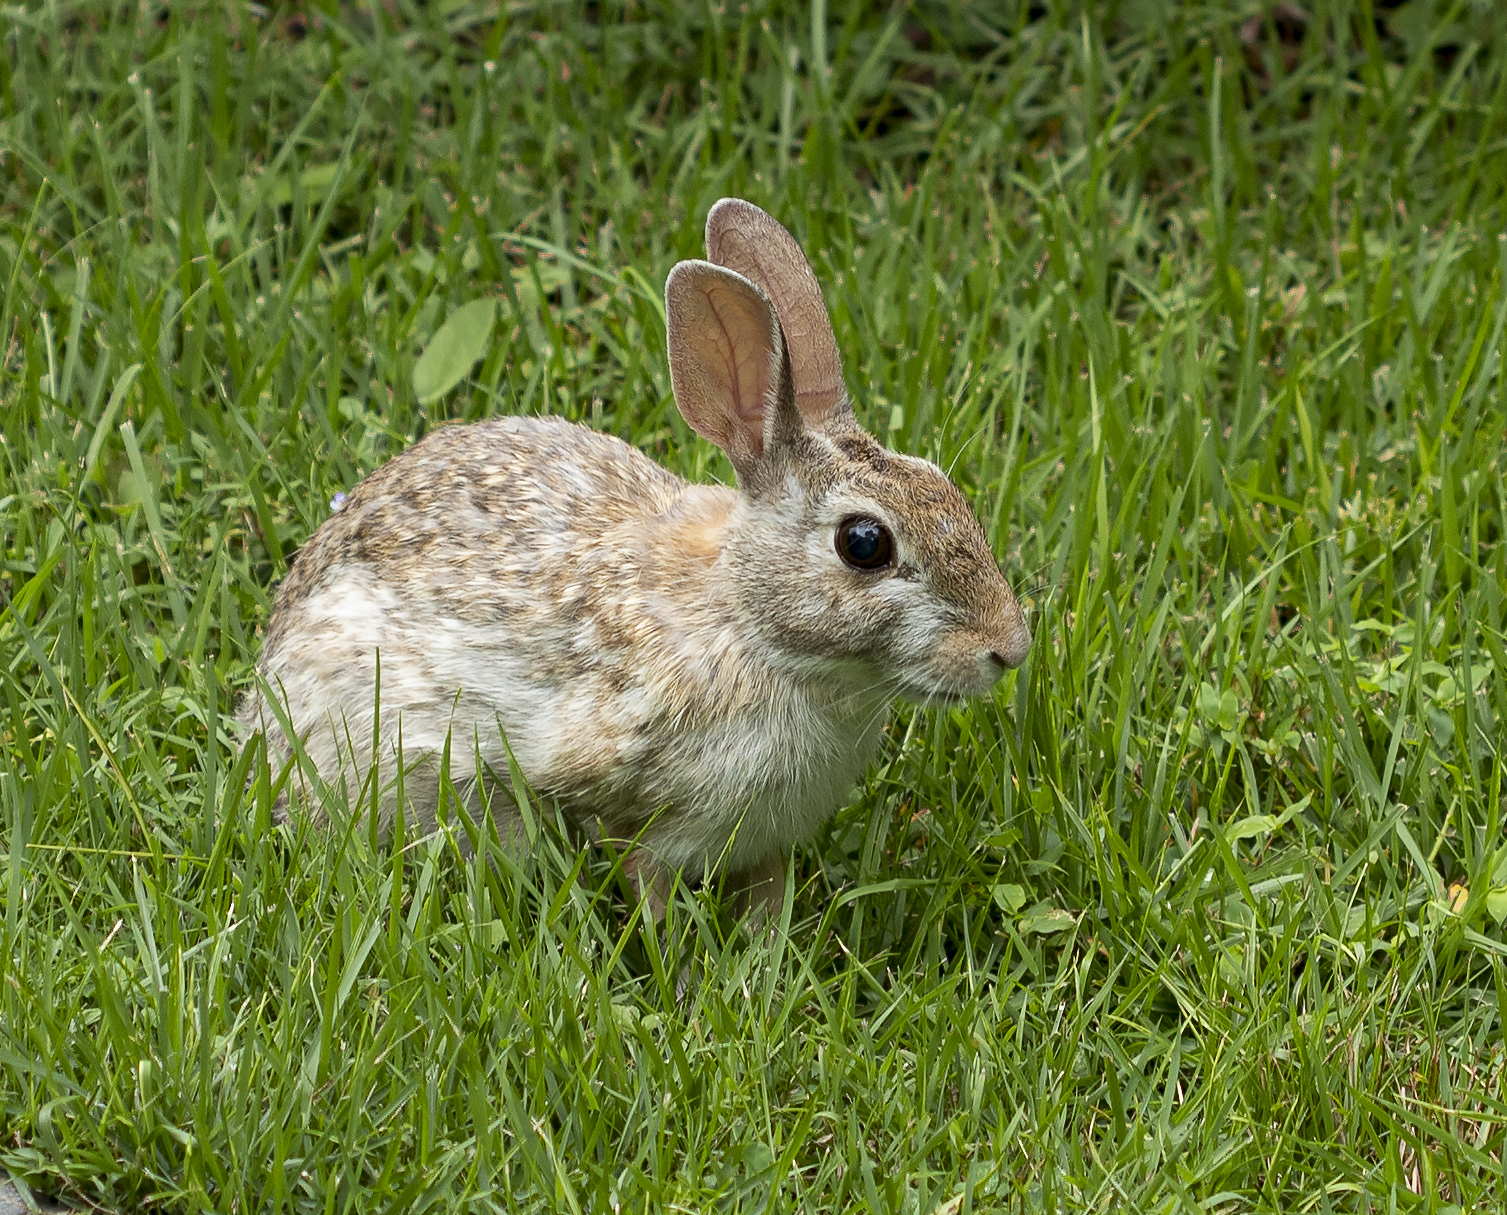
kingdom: Animalia
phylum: Chordata
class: Mammalia
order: Lagomorpha
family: Leporidae
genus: Sylvilagus
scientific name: Sylvilagus floridanus
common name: Eastern cottontail
